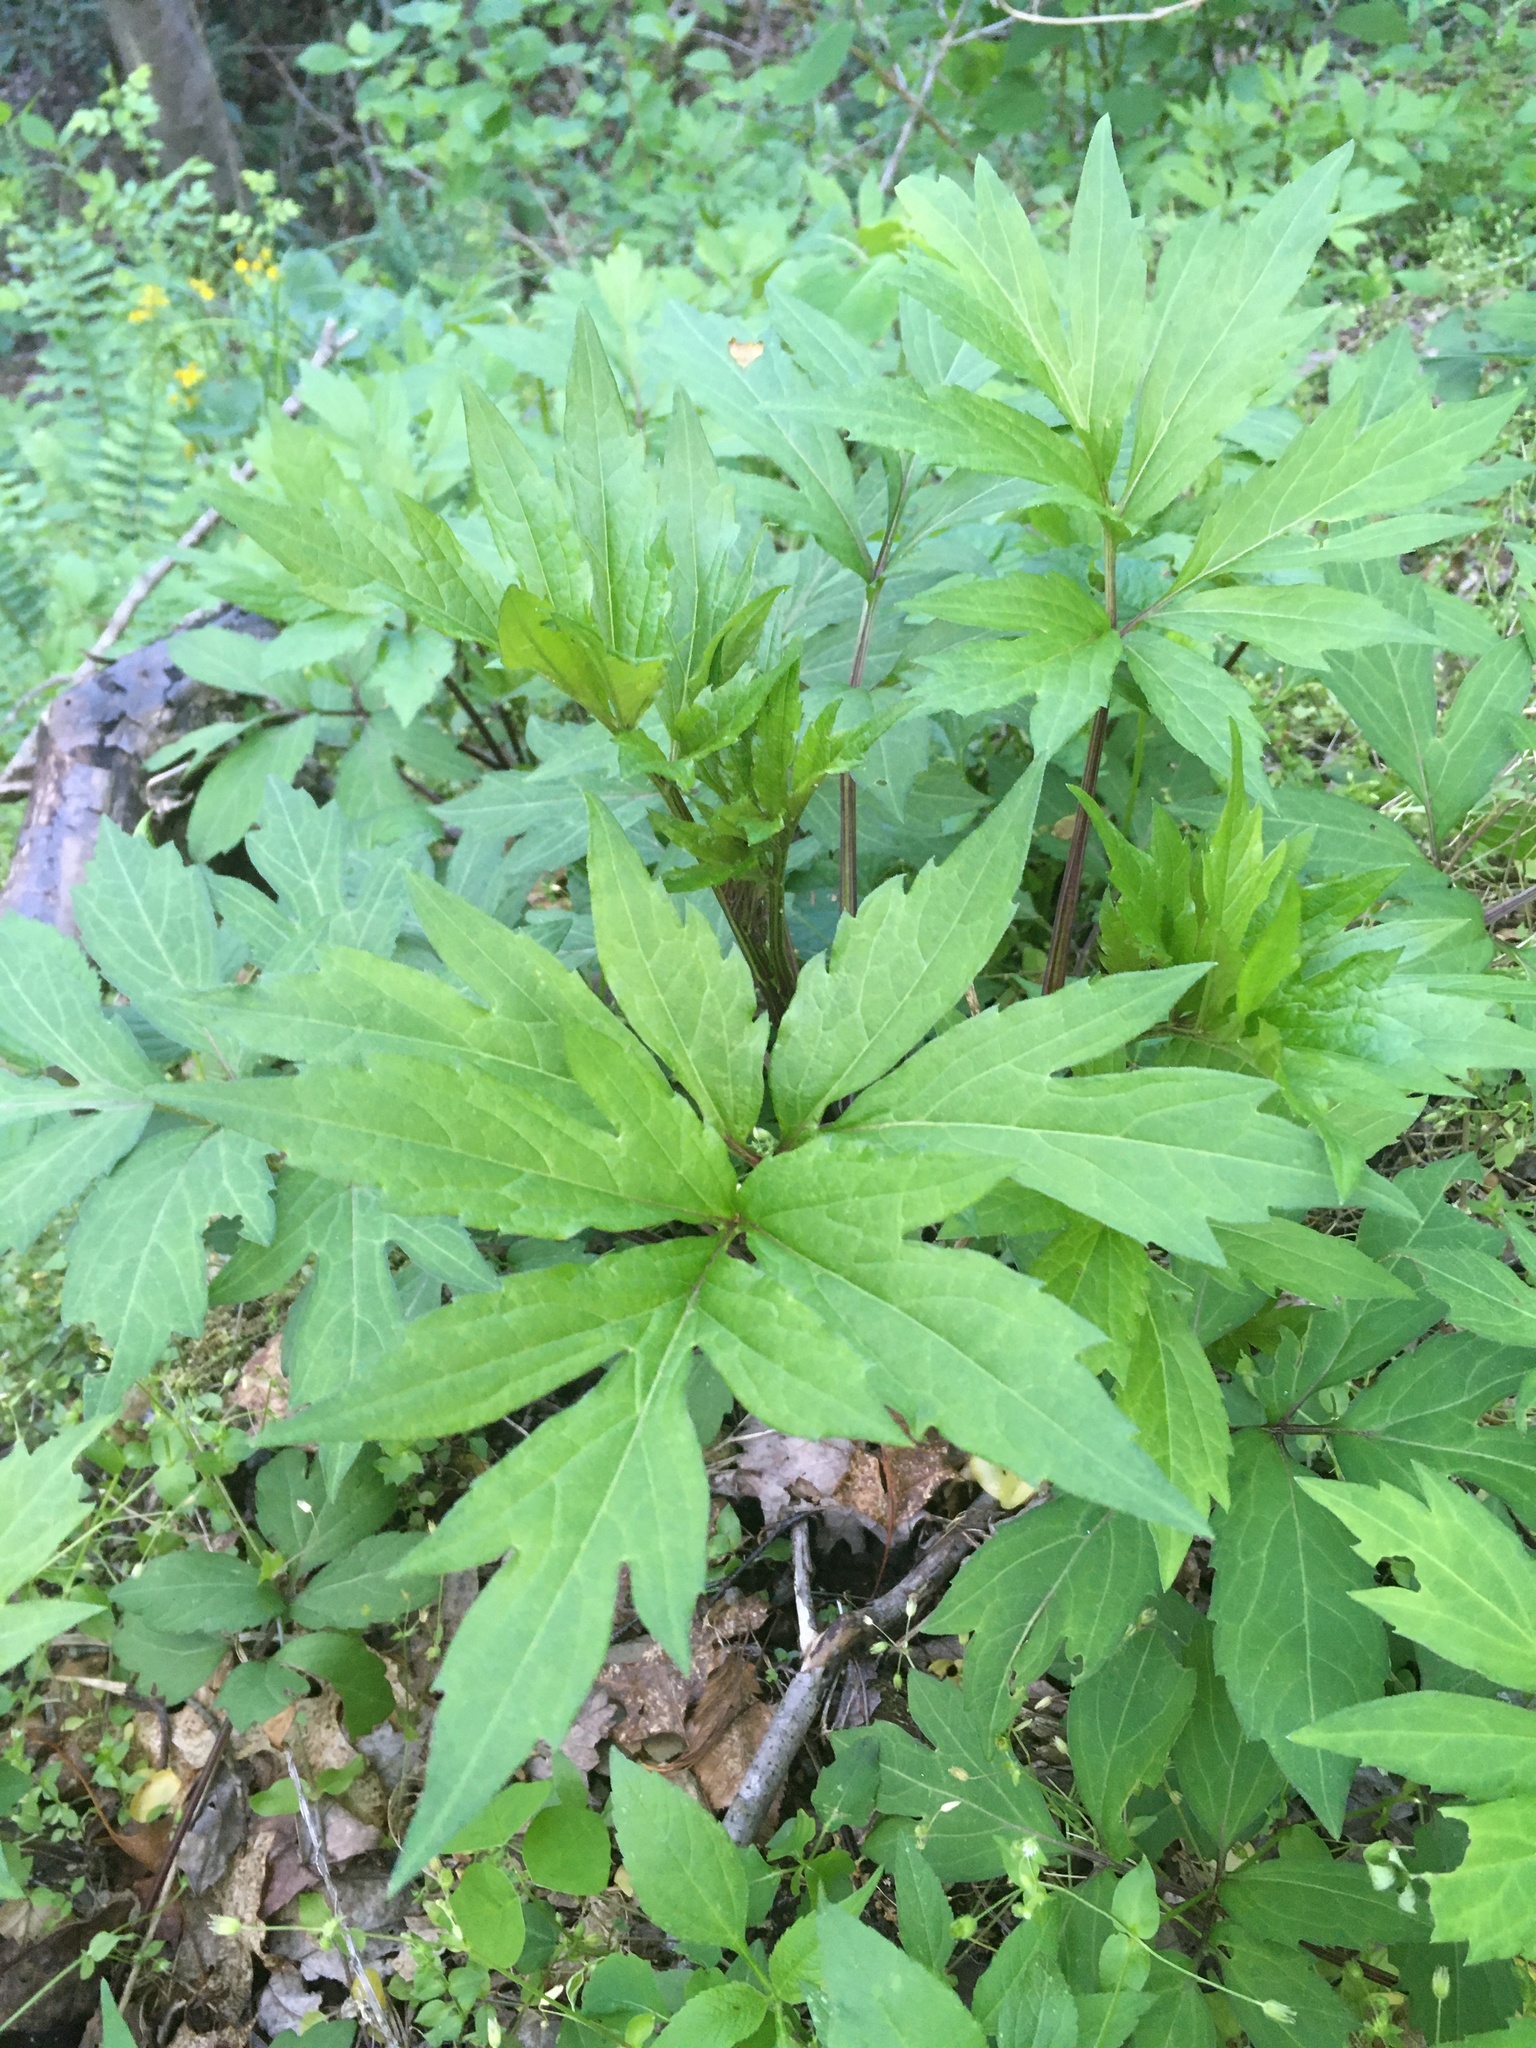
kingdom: Plantae
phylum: Tracheophyta
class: Magnoliopsida
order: Asterales
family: Asteraceae
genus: Rudbeckia
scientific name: Rudbeckia laciniata
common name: Coneflower
